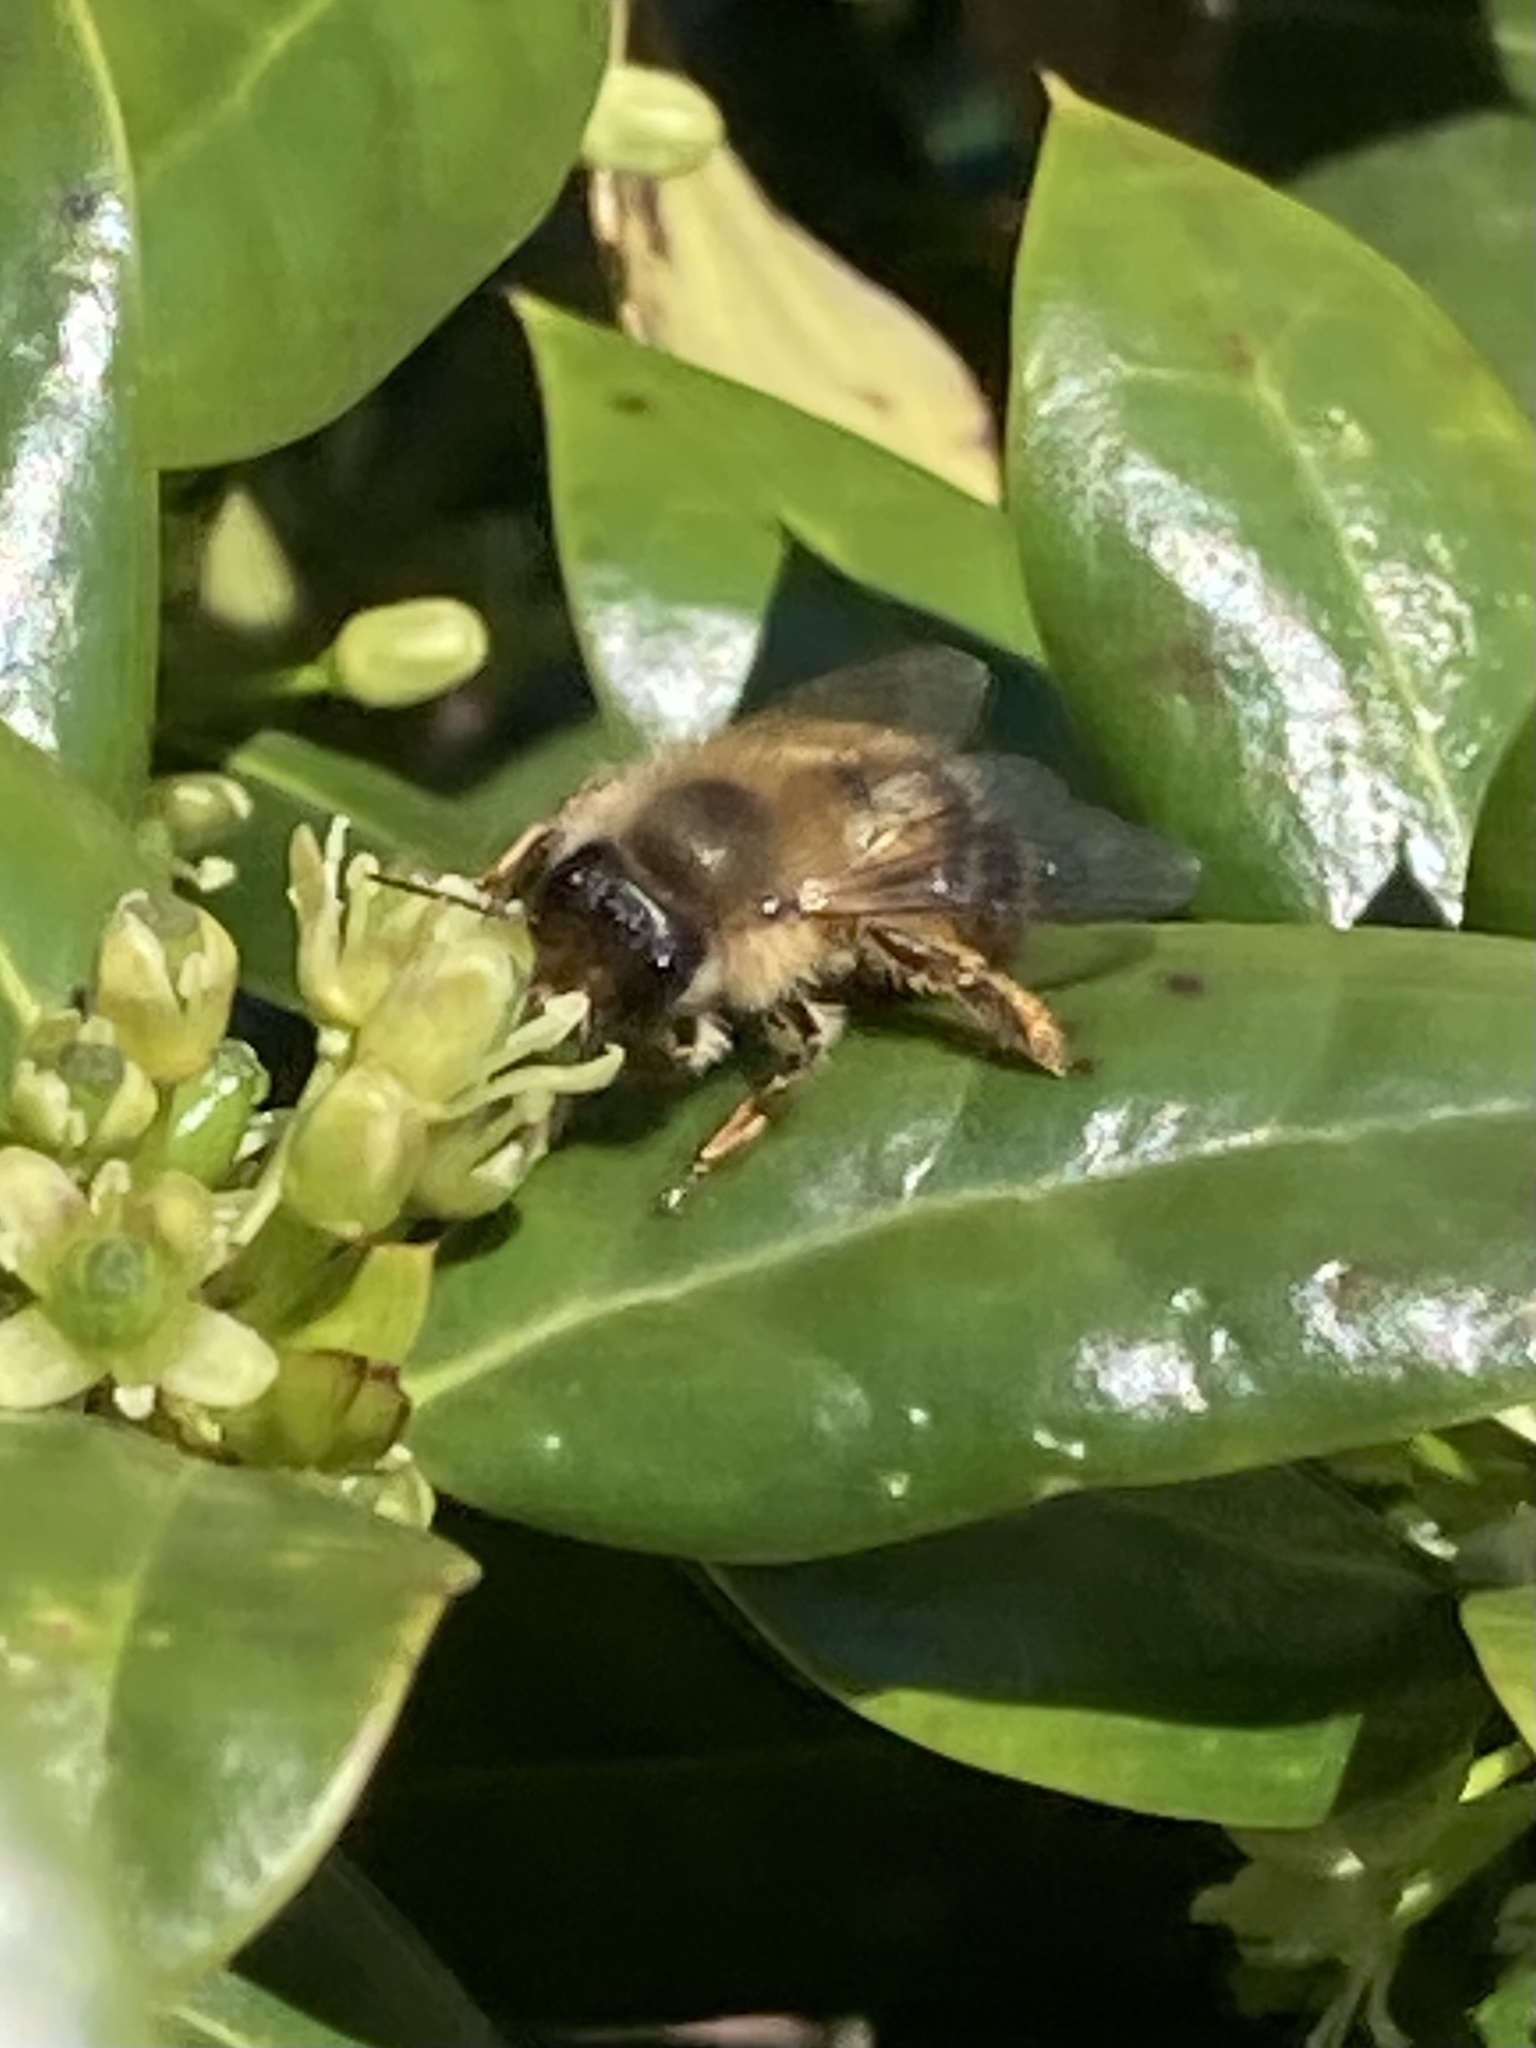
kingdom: Animalia
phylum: Arthropoda
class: Insecta
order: Hymenoptera
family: Apidae
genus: Apis
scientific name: Apis mellifera
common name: Honey bee
